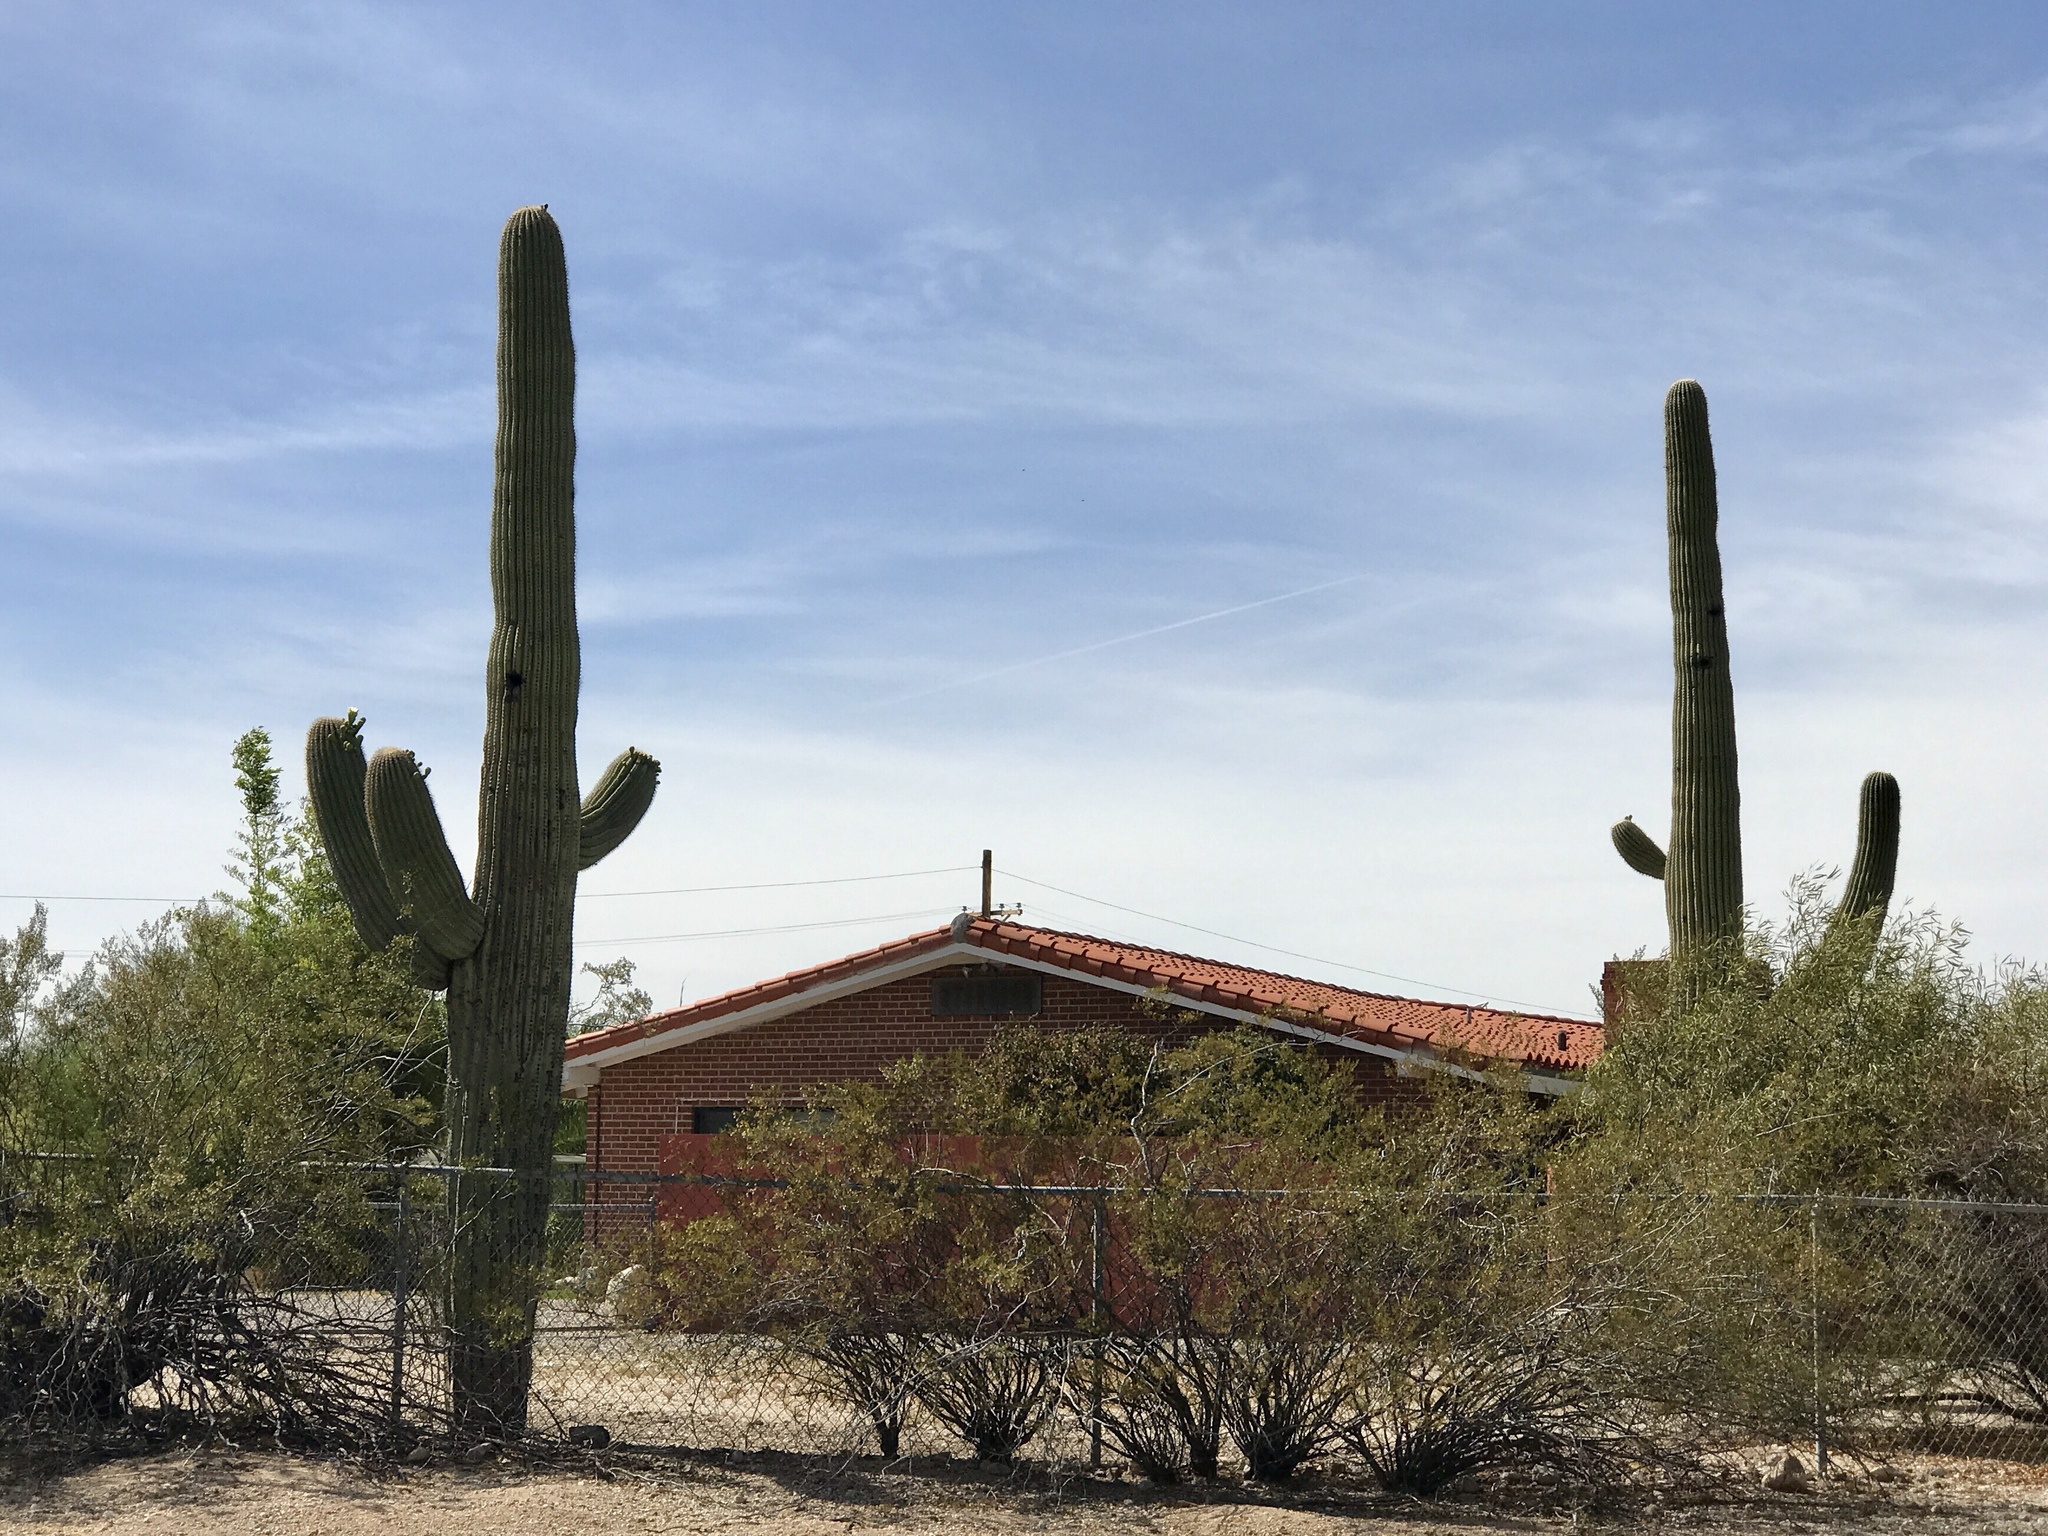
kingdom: Plantae
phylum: Tracheophyta
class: Magnoliopsida
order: Caryophyllales
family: Cactaceae
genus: Carnegiea
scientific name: Carnegiea gigantea
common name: Saguaro
